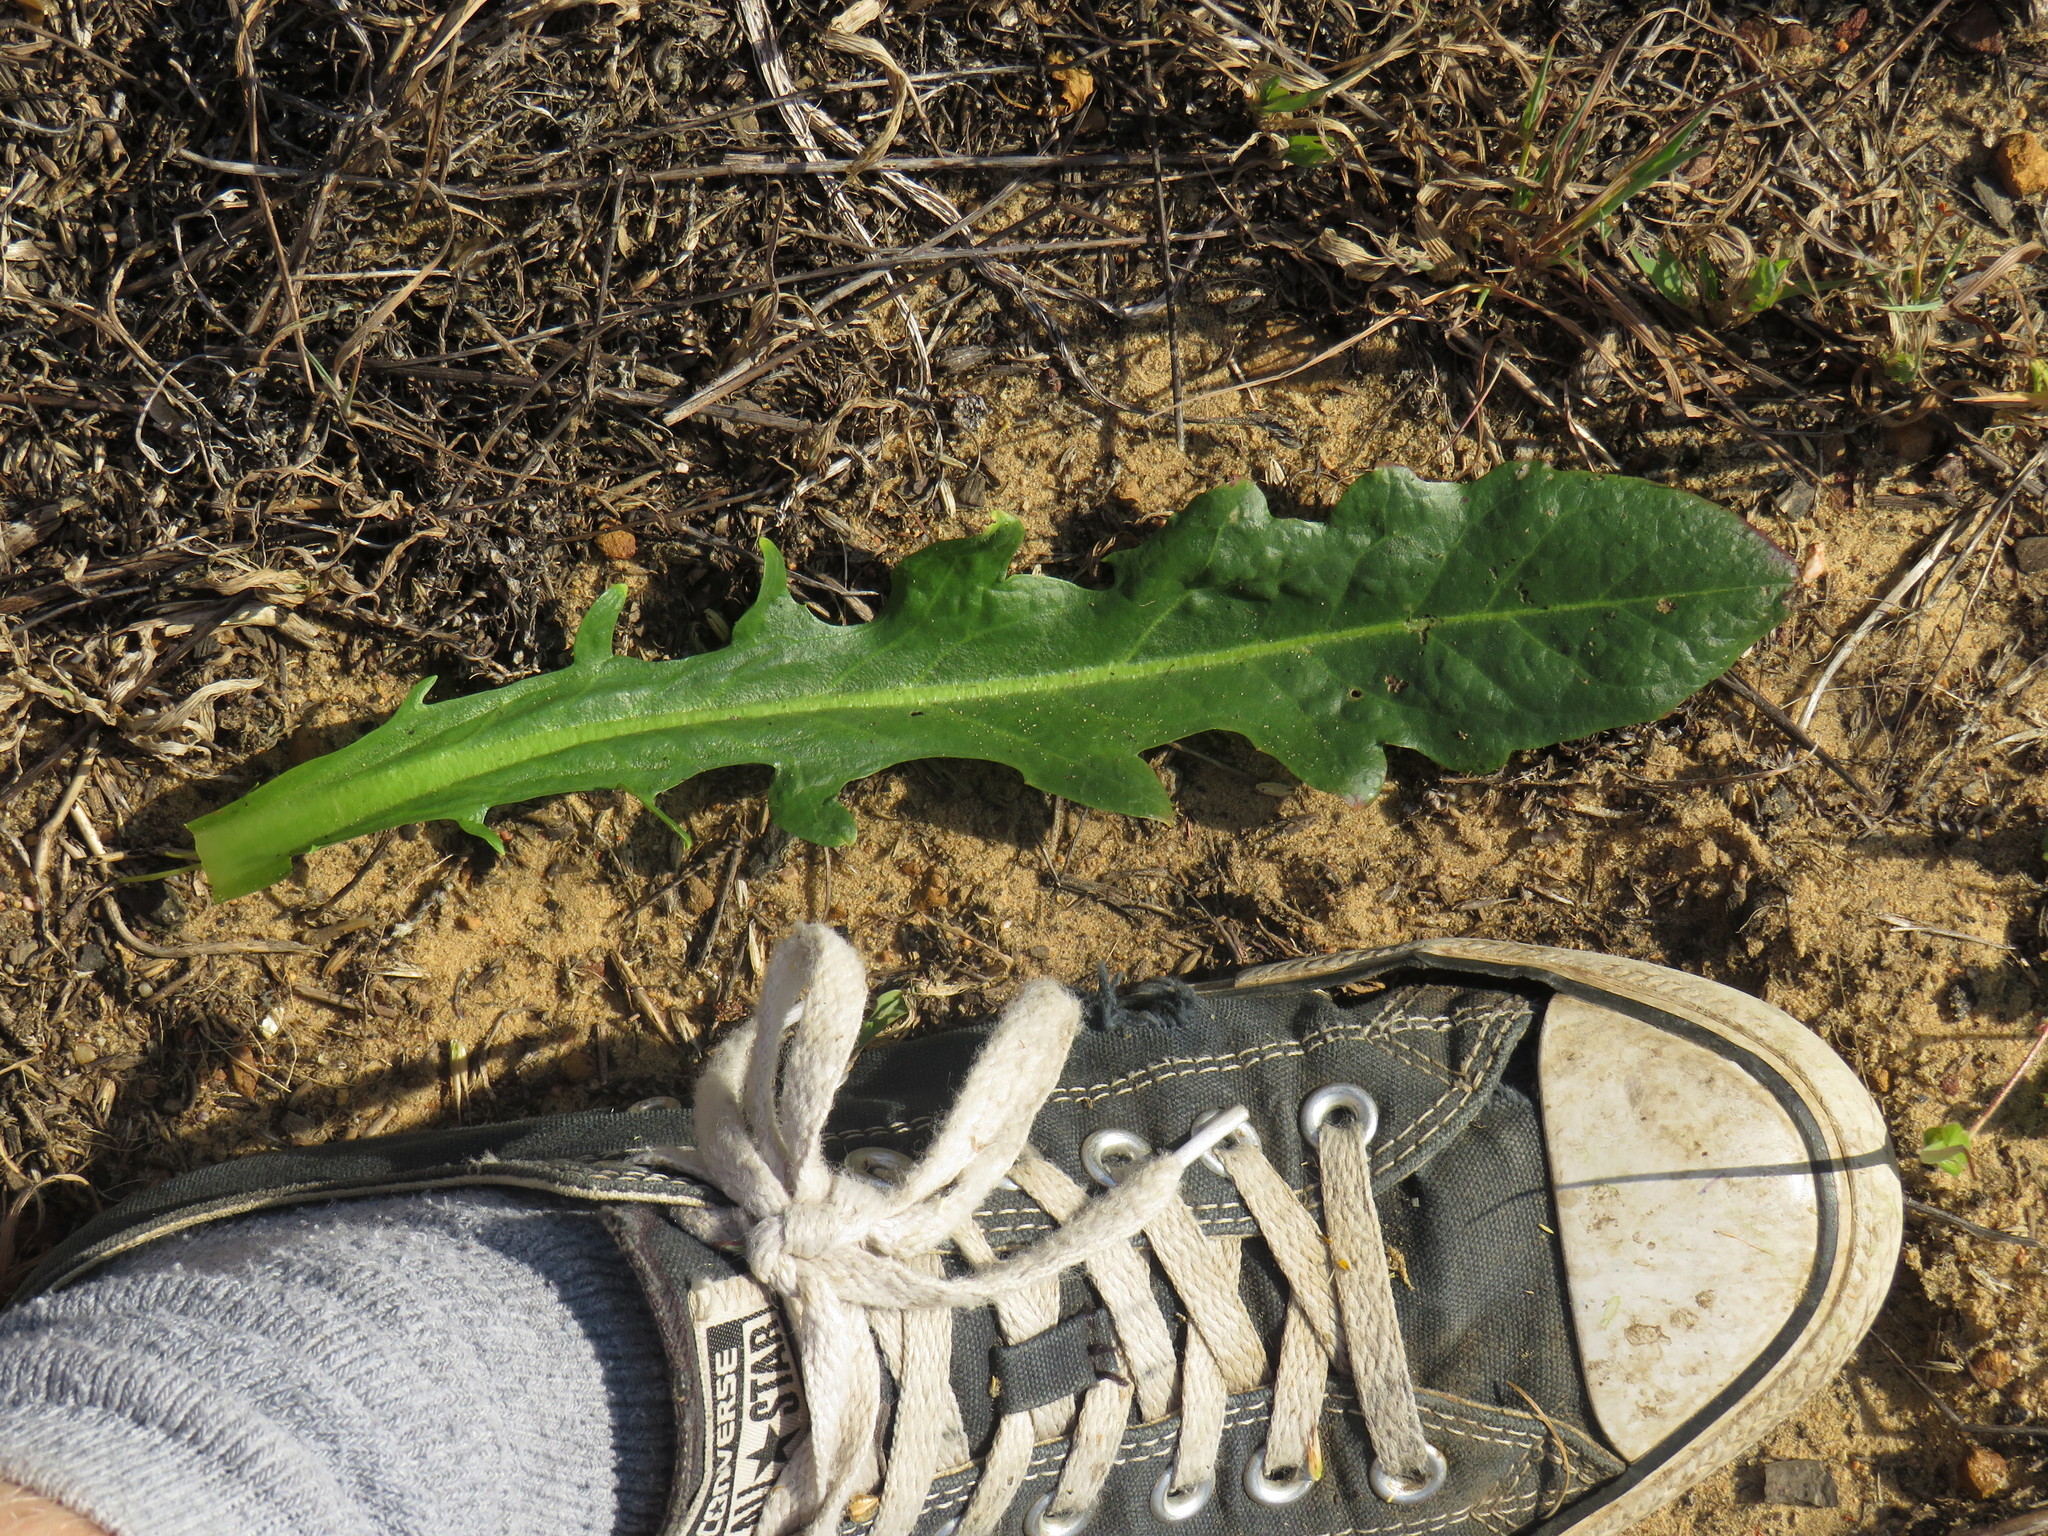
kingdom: Plantae
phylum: Tracheophyta
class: Magnoliopsida
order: Asterales
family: Asteraceae
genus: Hypochaeris
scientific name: Hypochaeris radicata
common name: Flatweed
